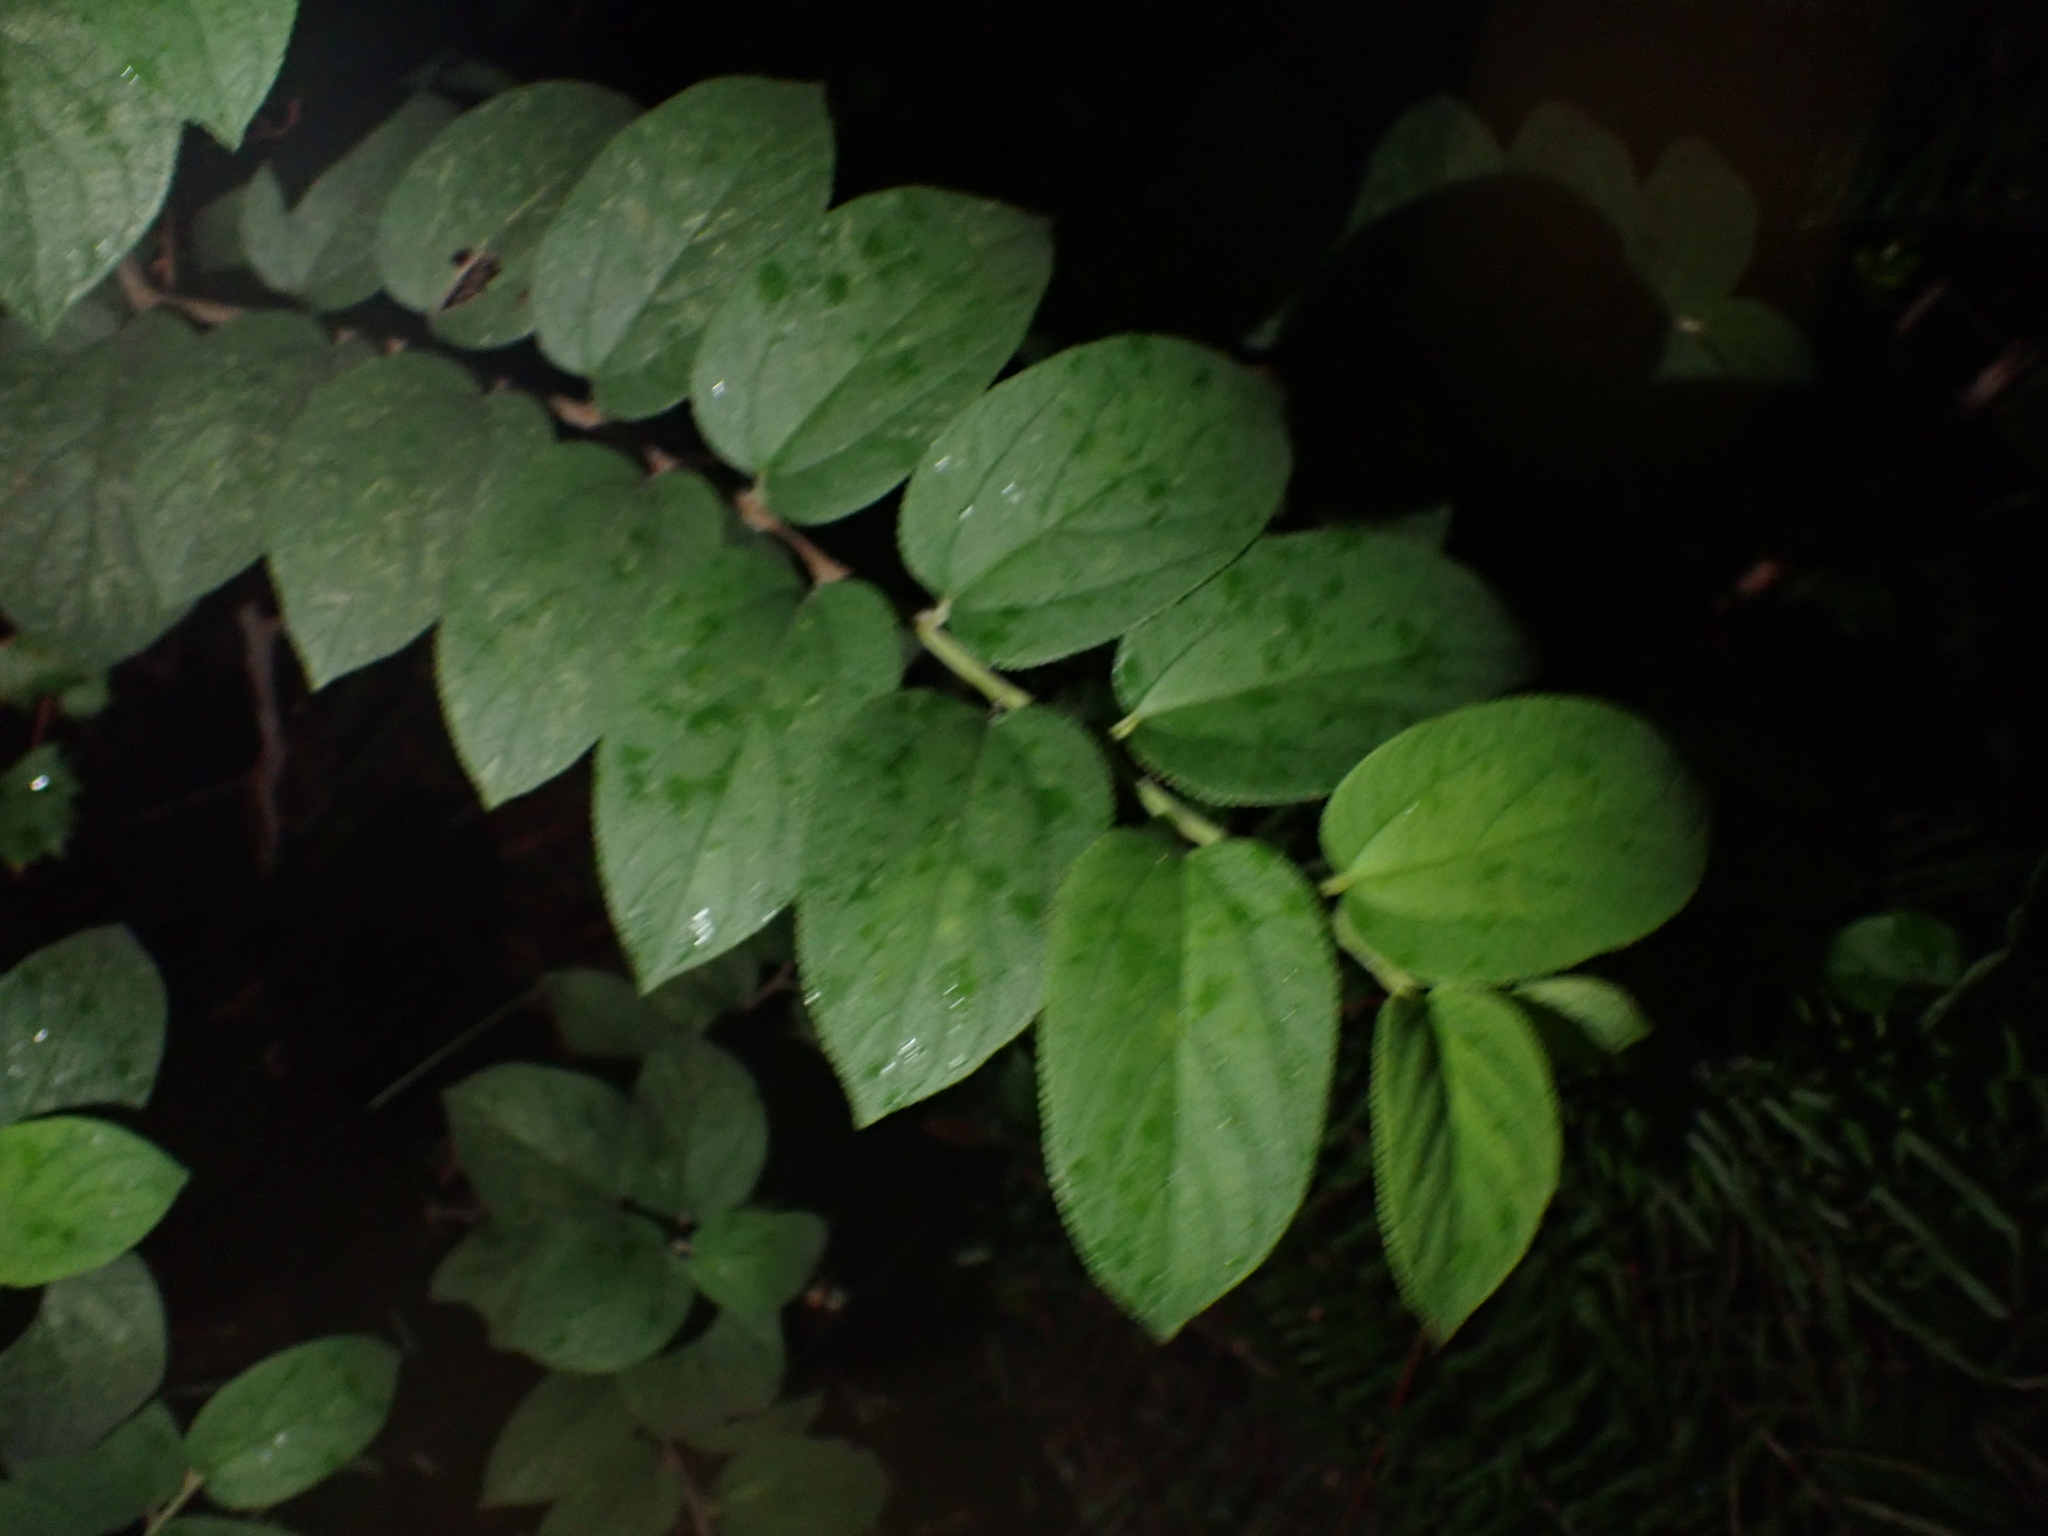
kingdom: Plantae
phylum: Tracheophyta
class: Magnoliopsida
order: Rosales
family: Cannabaceae
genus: Trema
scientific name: Trema micranthum
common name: Jamaican nettletree
